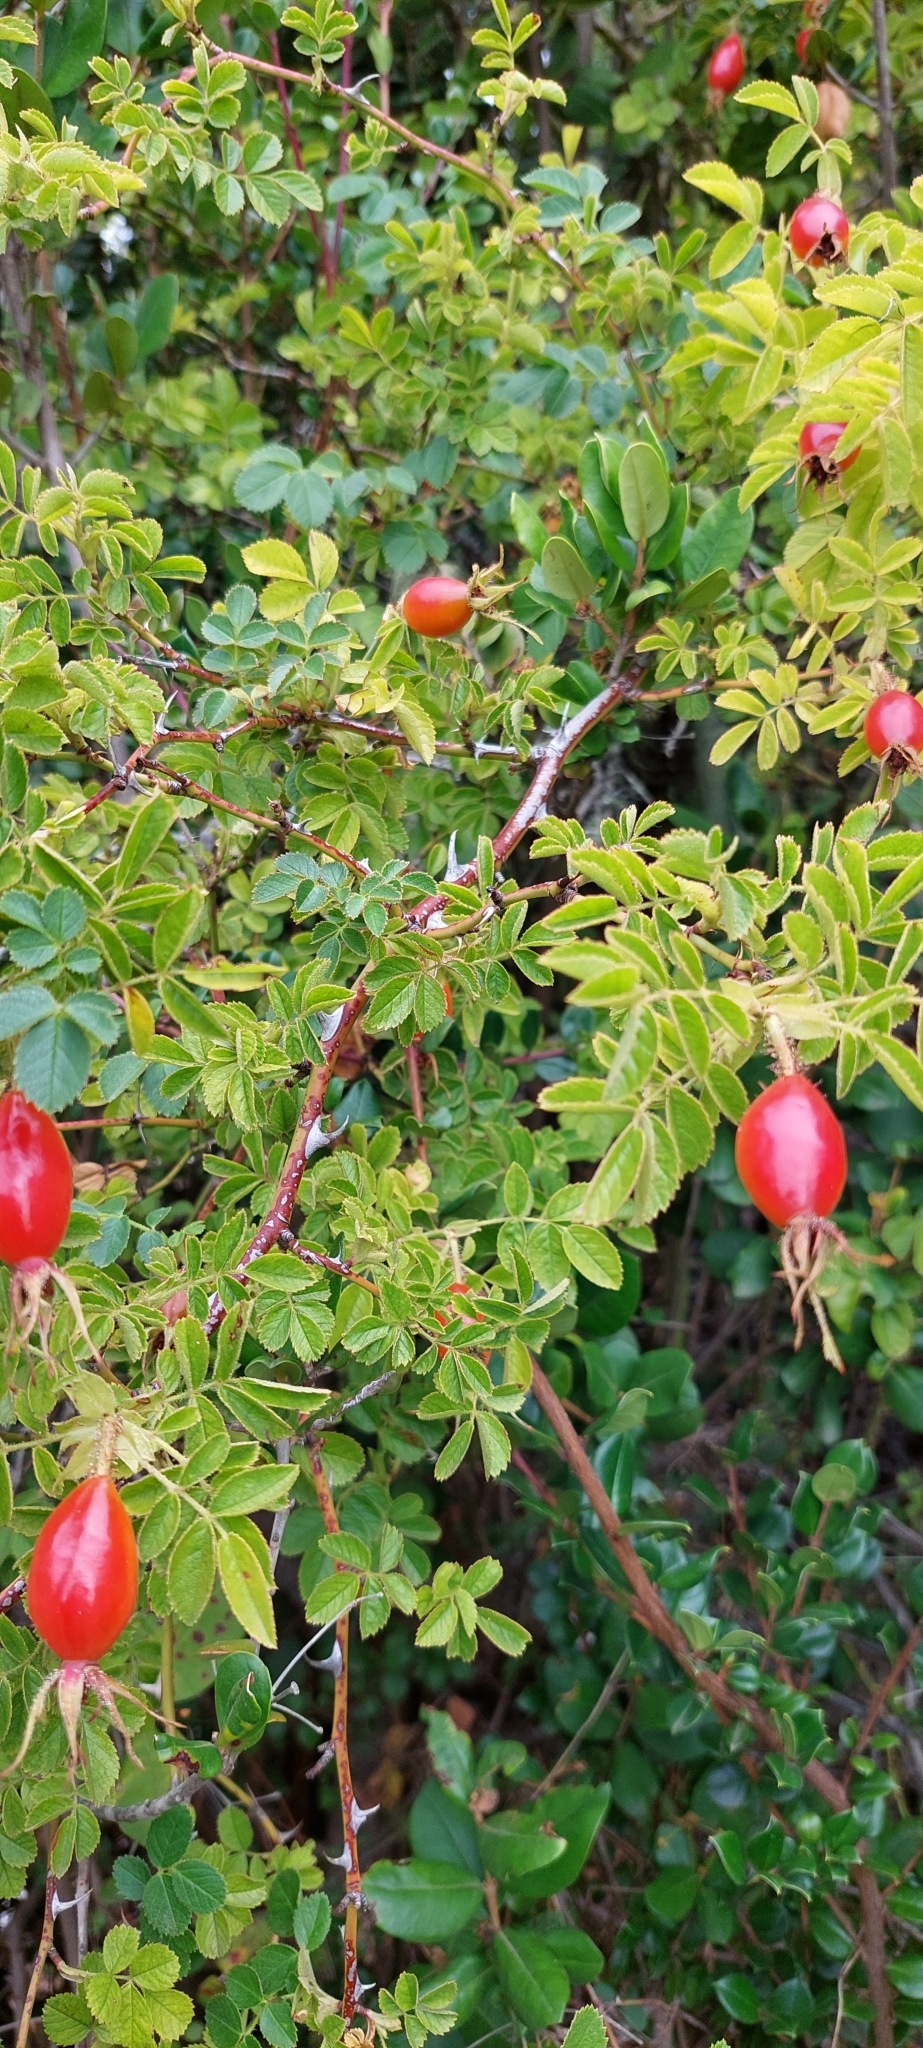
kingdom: Plantae
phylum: Tracheophyta
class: Magnoliopsida
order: Rosales
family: Rosaceae
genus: Rosa
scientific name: Rosa rubiginosa
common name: Sweet-briar
